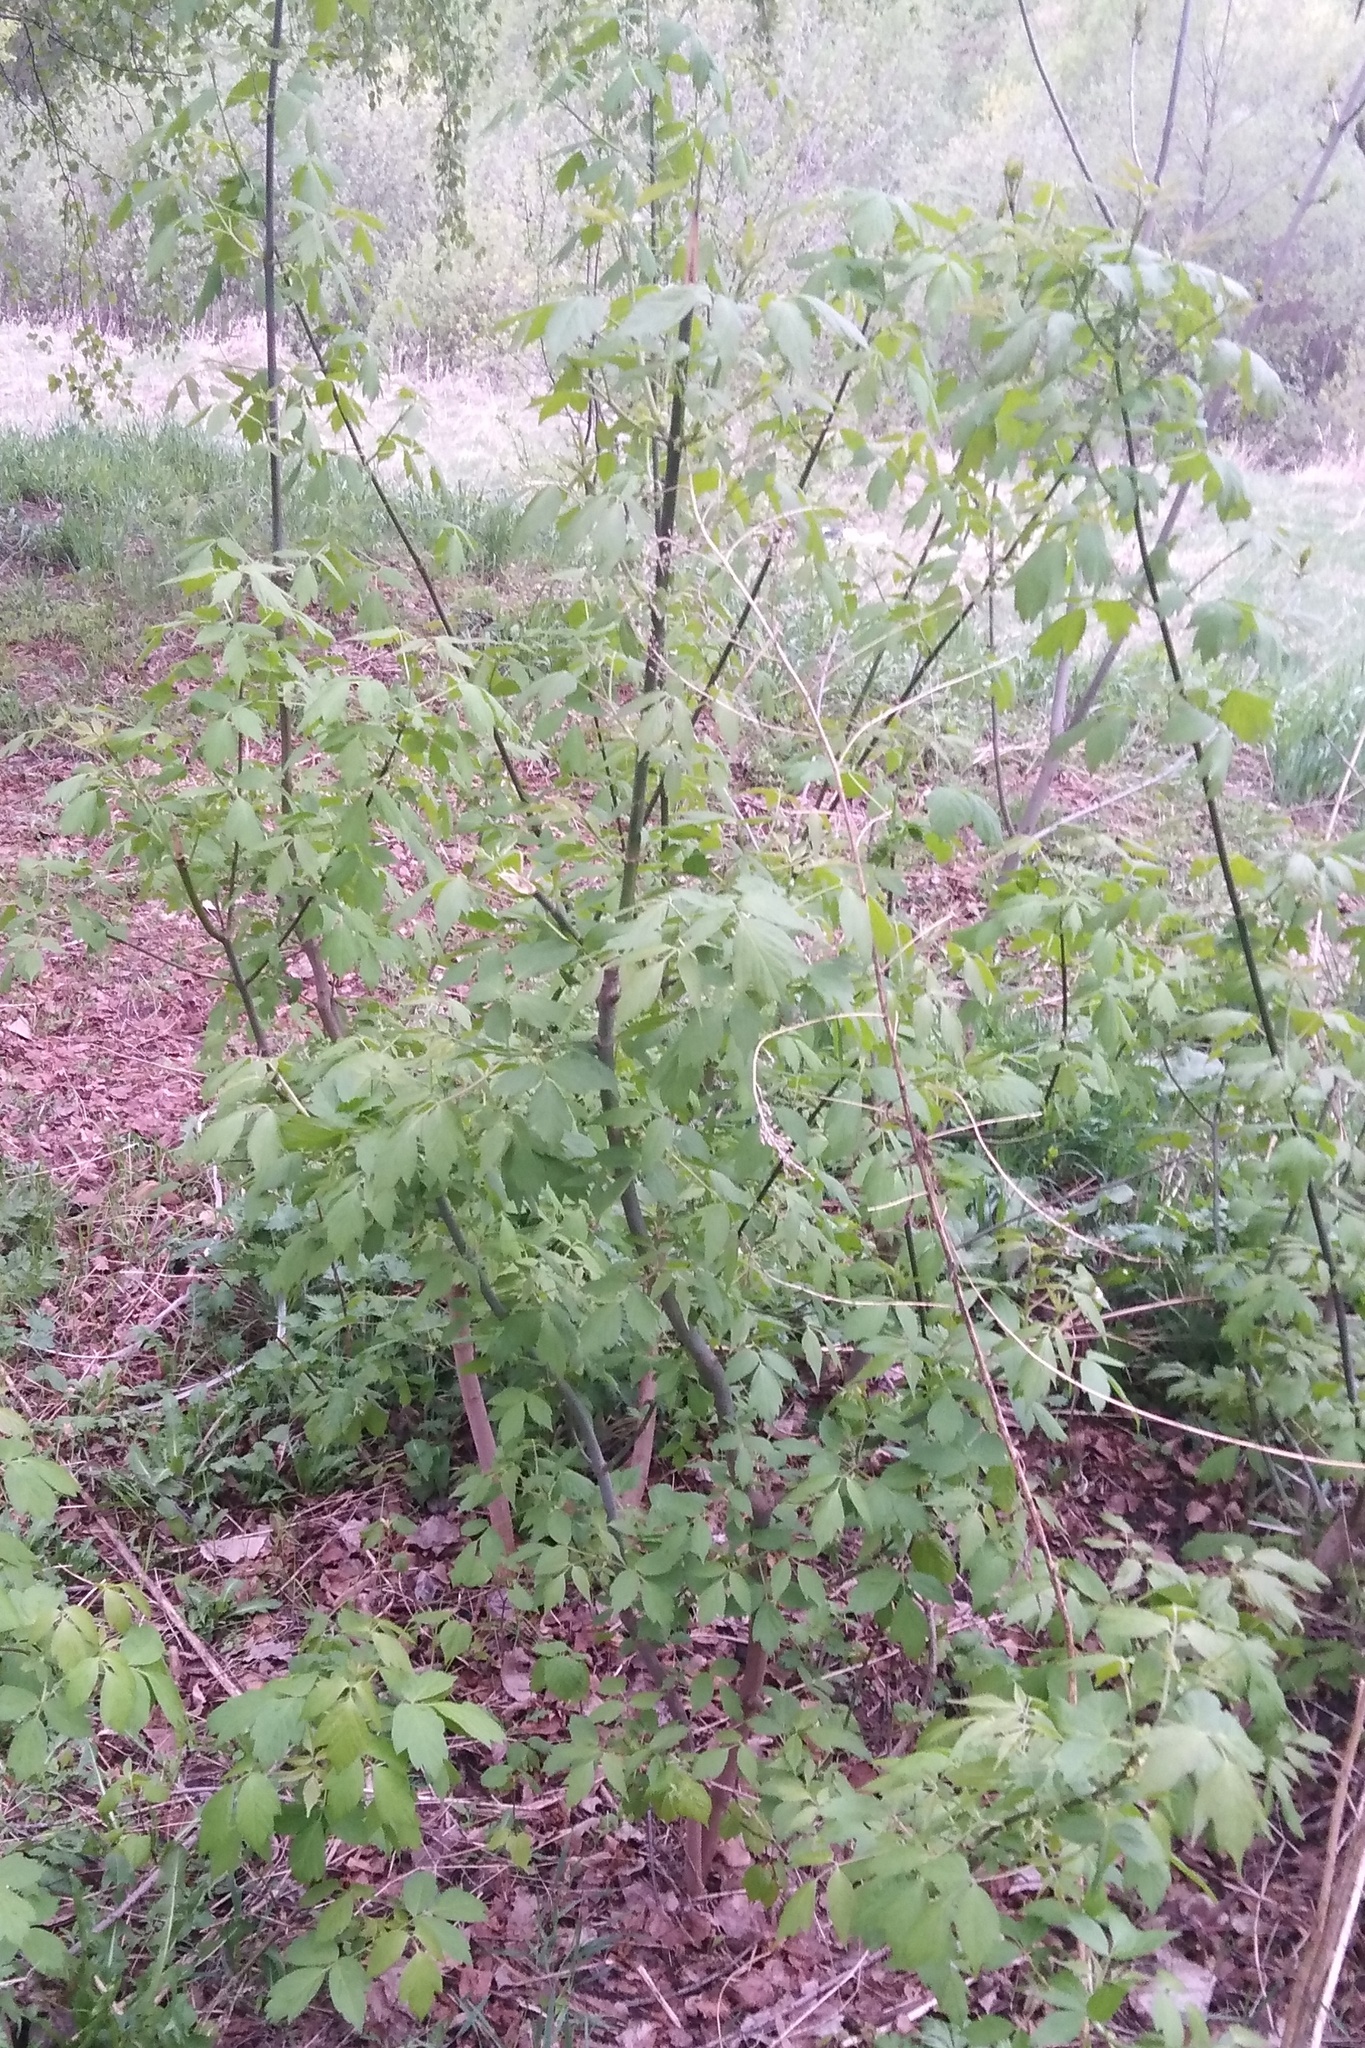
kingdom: Plantae
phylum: Tracheophyta
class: Magnoliopsida
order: Sapindales
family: Sapindaceae
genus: Acer
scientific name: Acer negundo
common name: Ashleaf maple
